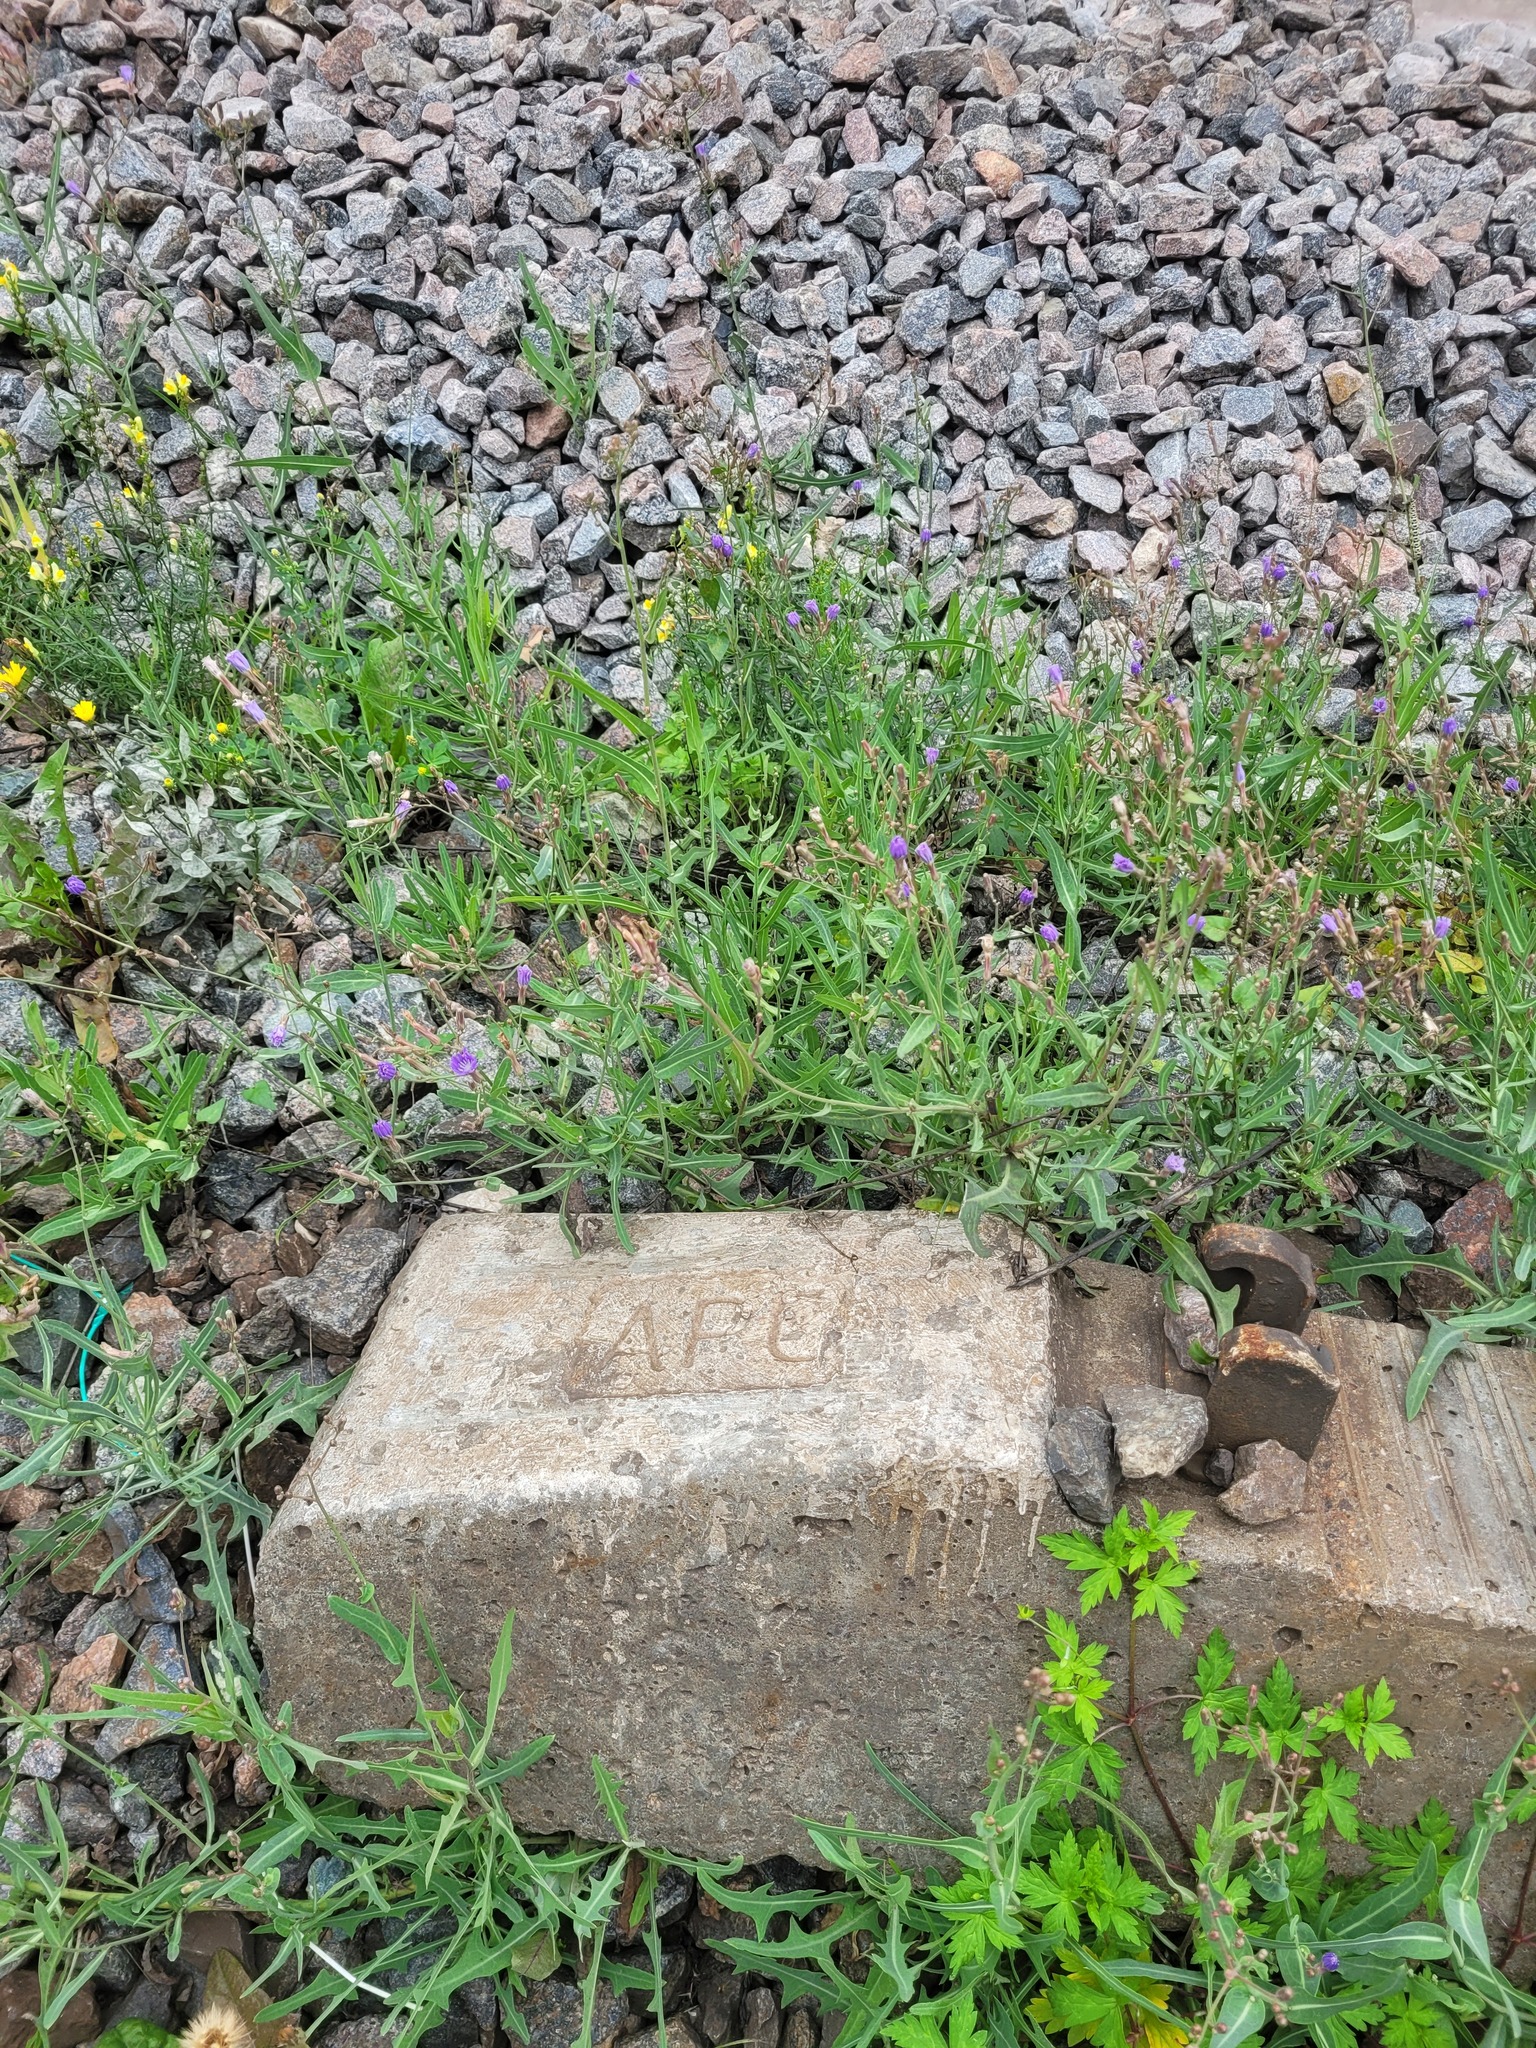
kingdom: Plantae
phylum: Tracheophyta
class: Magnoliopsida
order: Asterales
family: Asteraceae
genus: Lactuca
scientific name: Lactuca tatarica
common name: Blue lettuce
